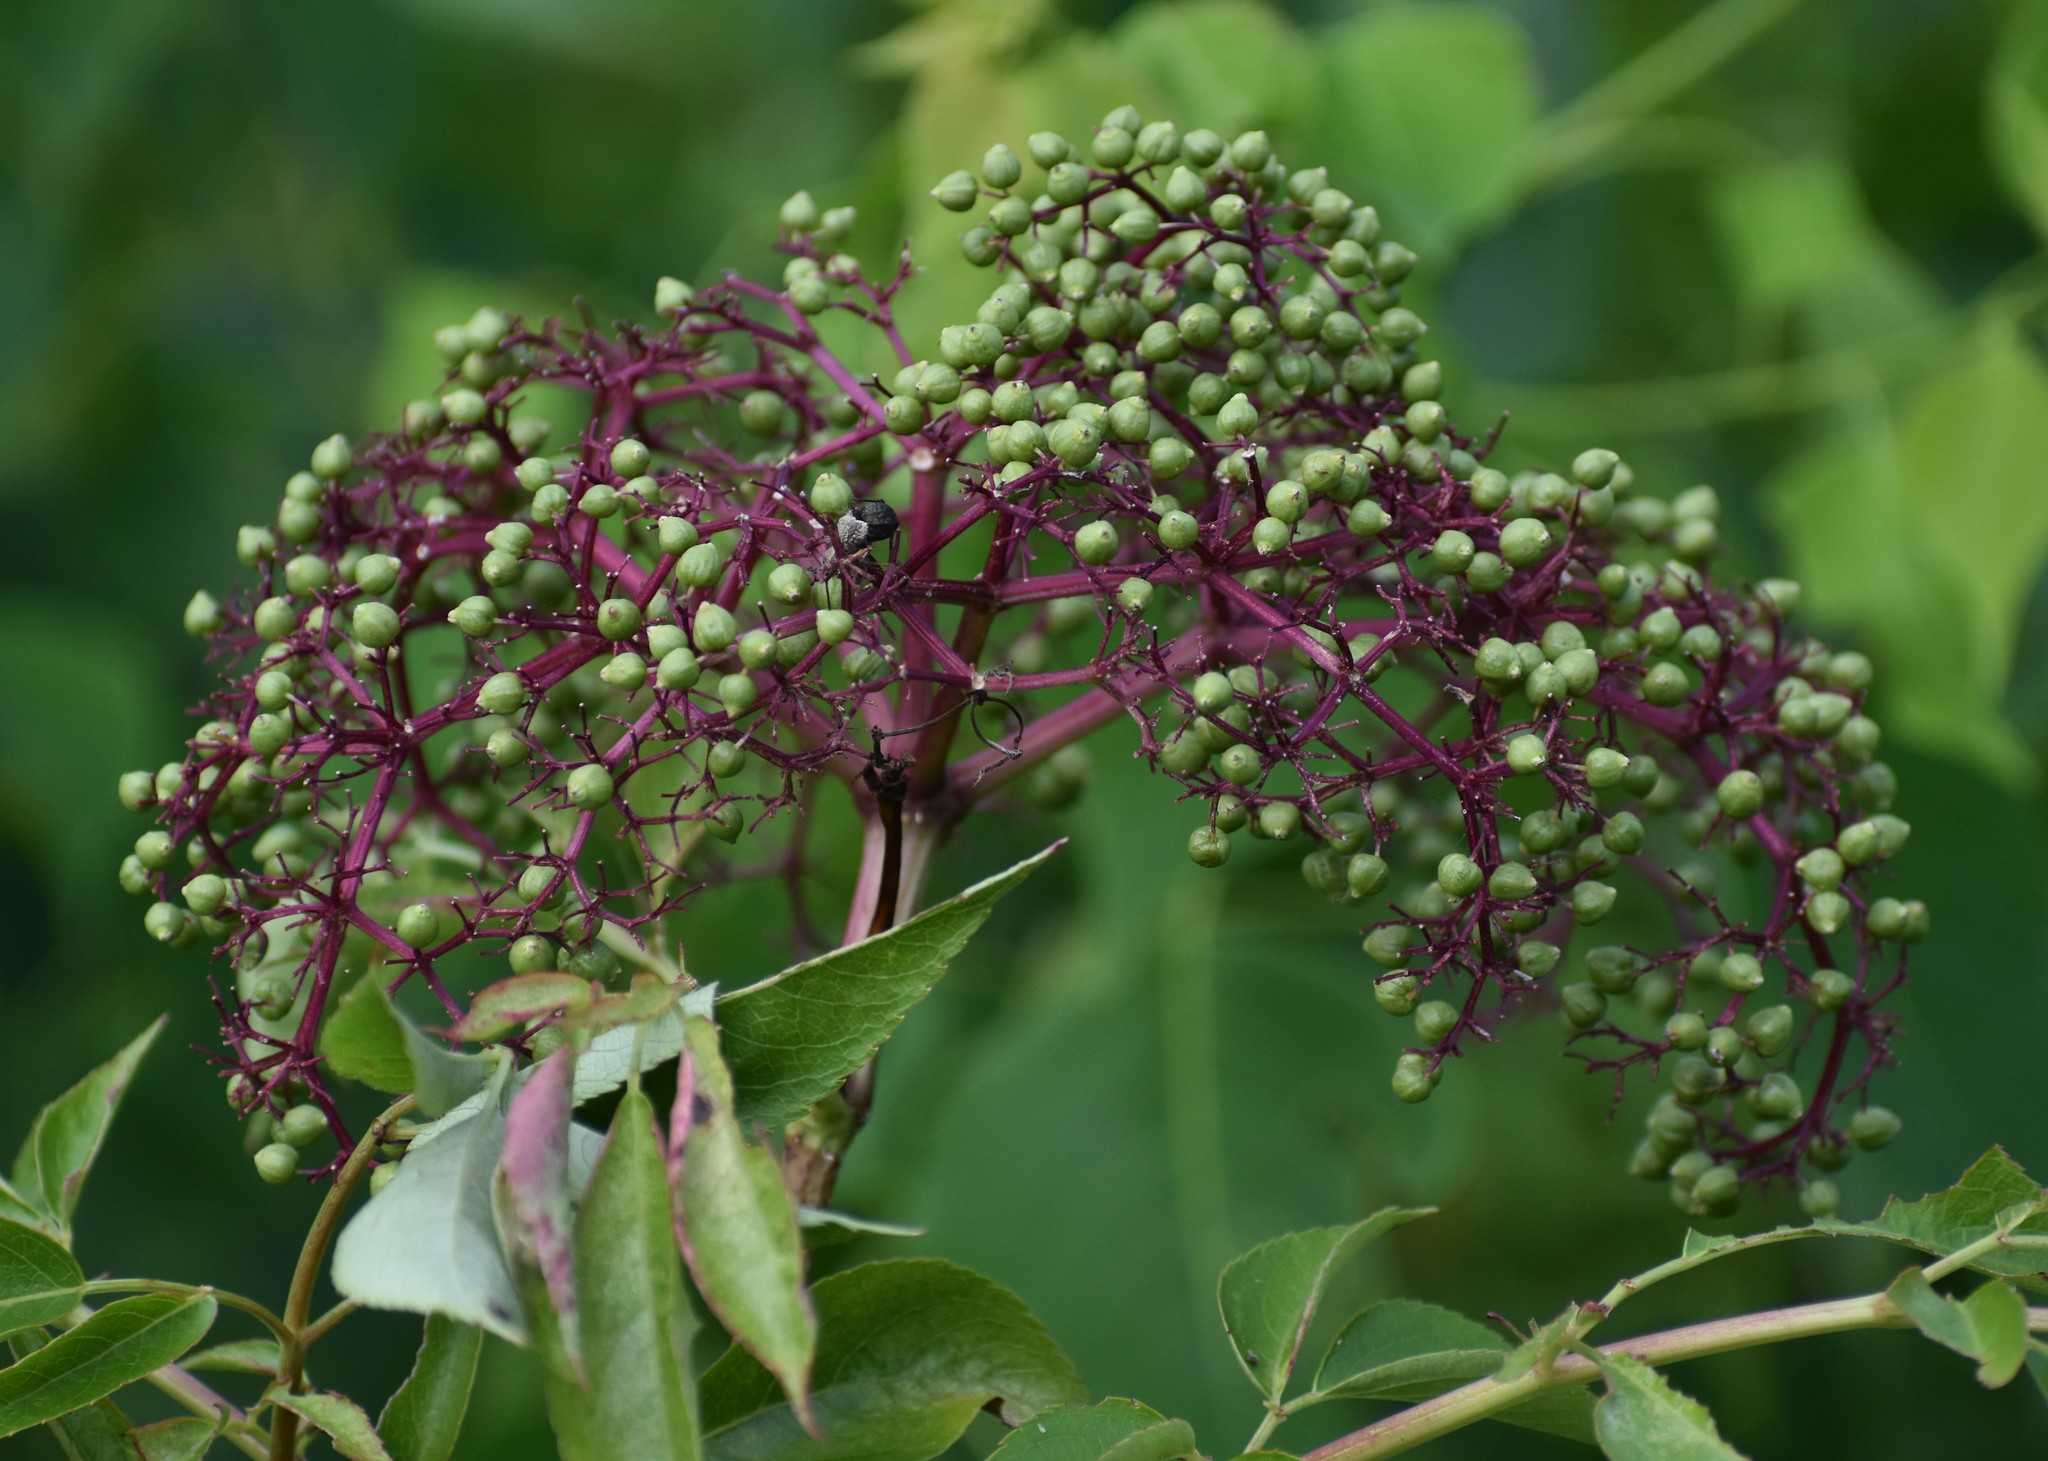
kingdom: Plantae
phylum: Tracheophyta
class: Magnoliopsida
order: Dipsacales
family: Viburnaceae
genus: Sambucus
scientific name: Sambucus canadensis
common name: American elder
